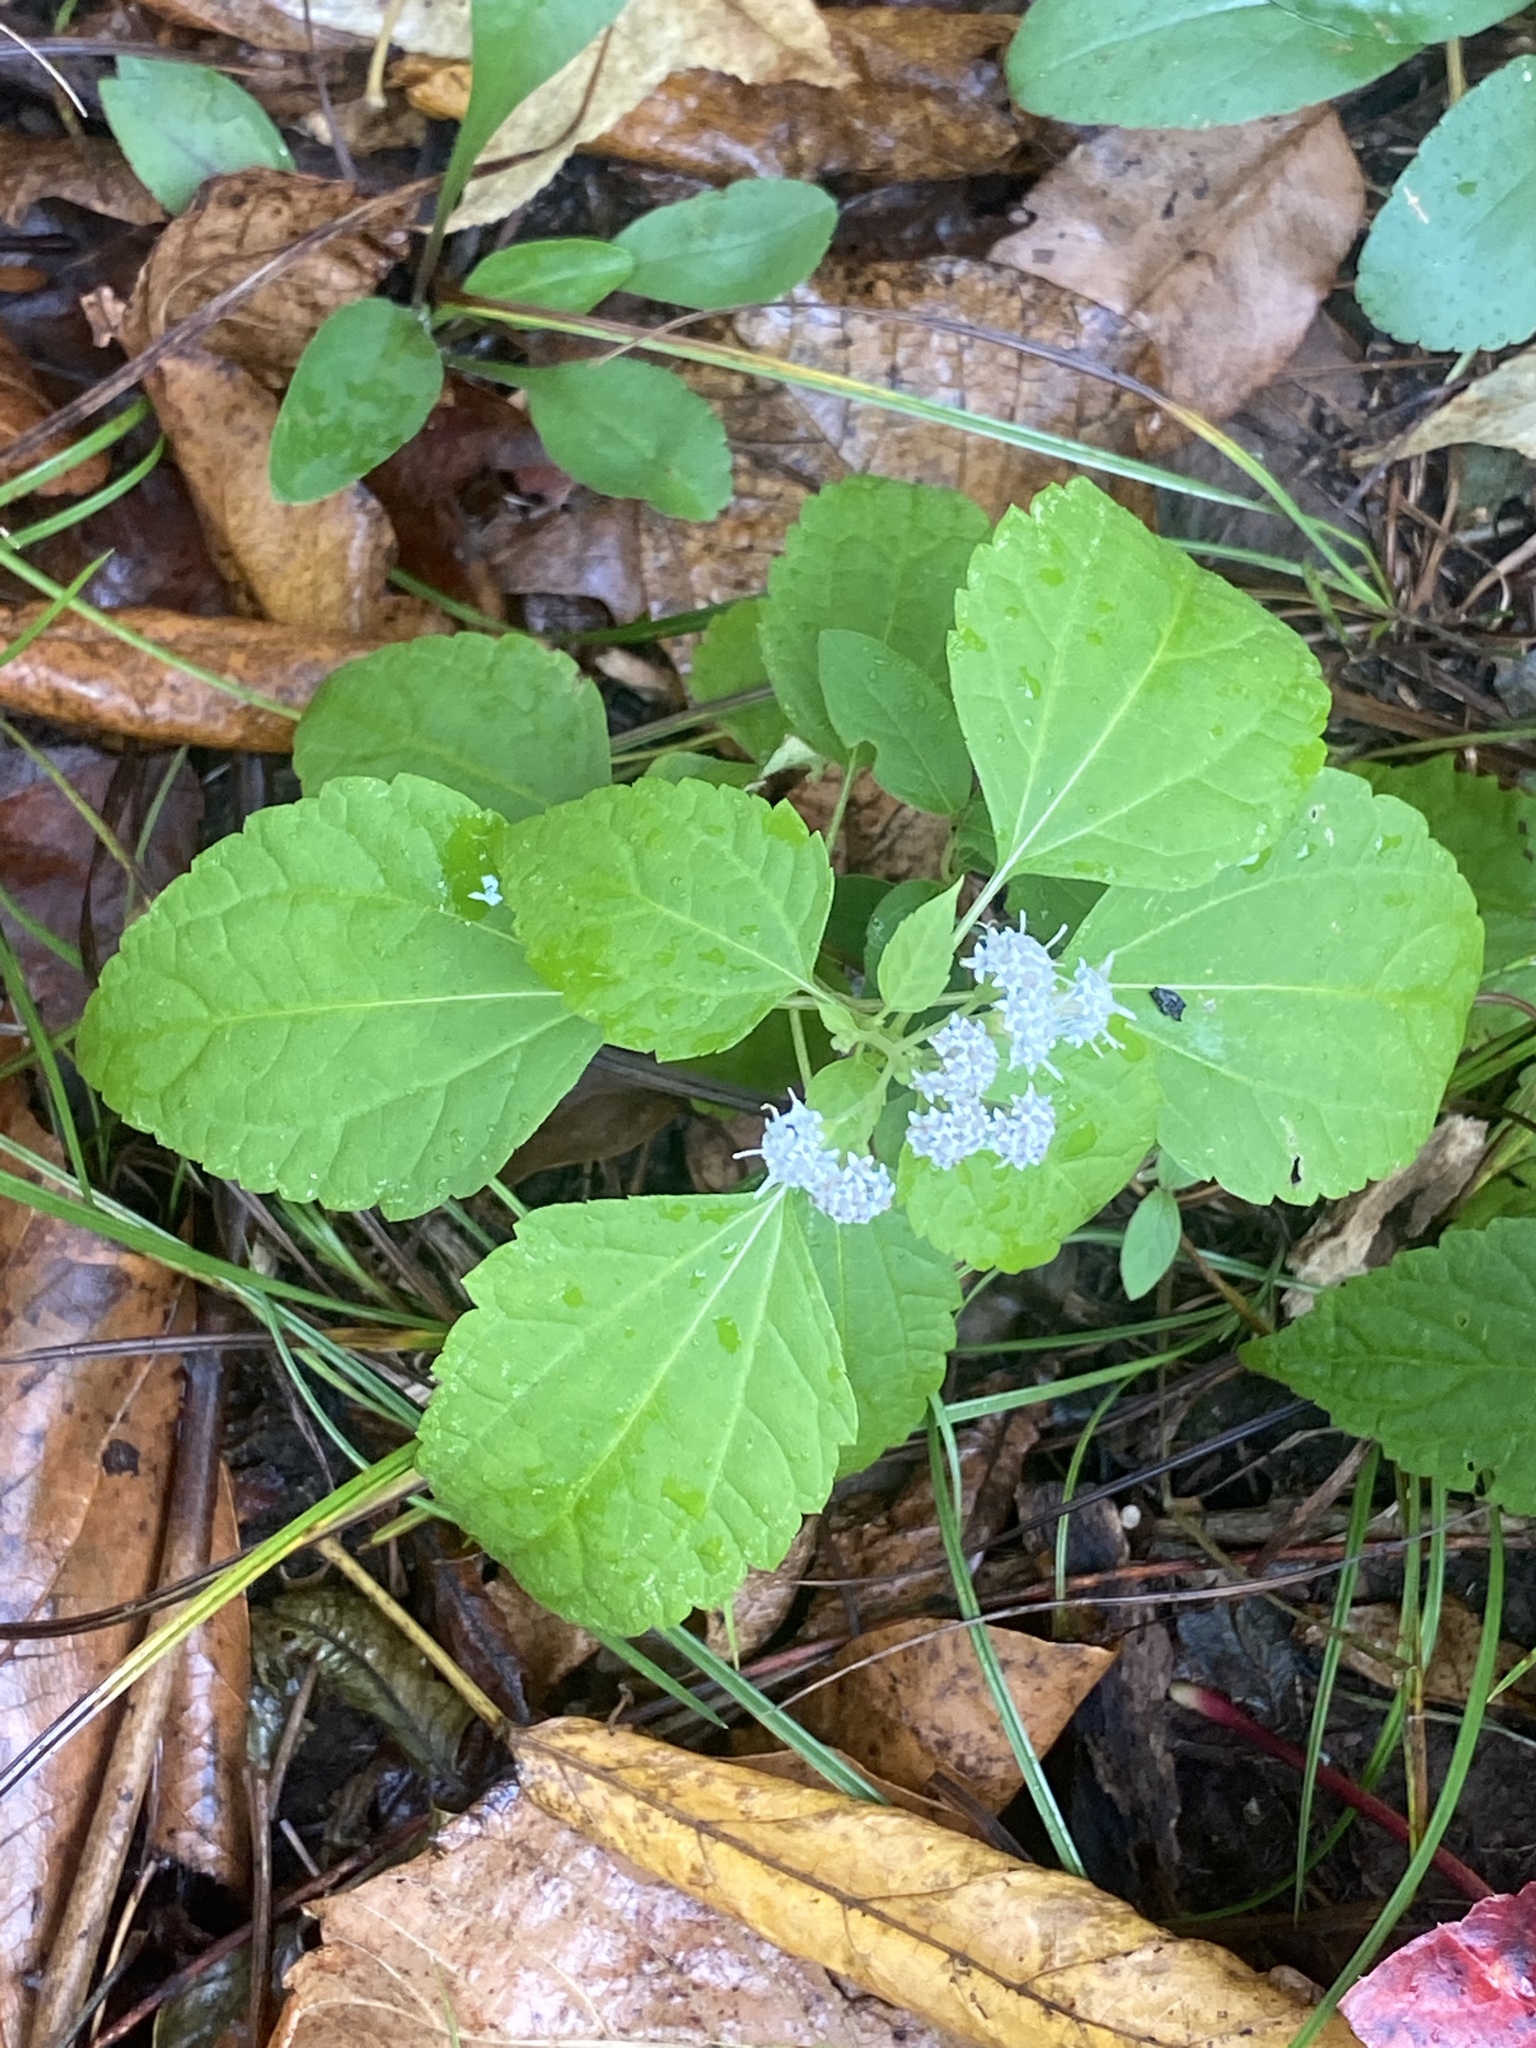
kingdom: Plantae
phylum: Tracheophyta
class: Magnoliopsida
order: Asterales
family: Asteraceae
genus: Ageratina
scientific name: Ageratina altissima
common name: White snakeroot
